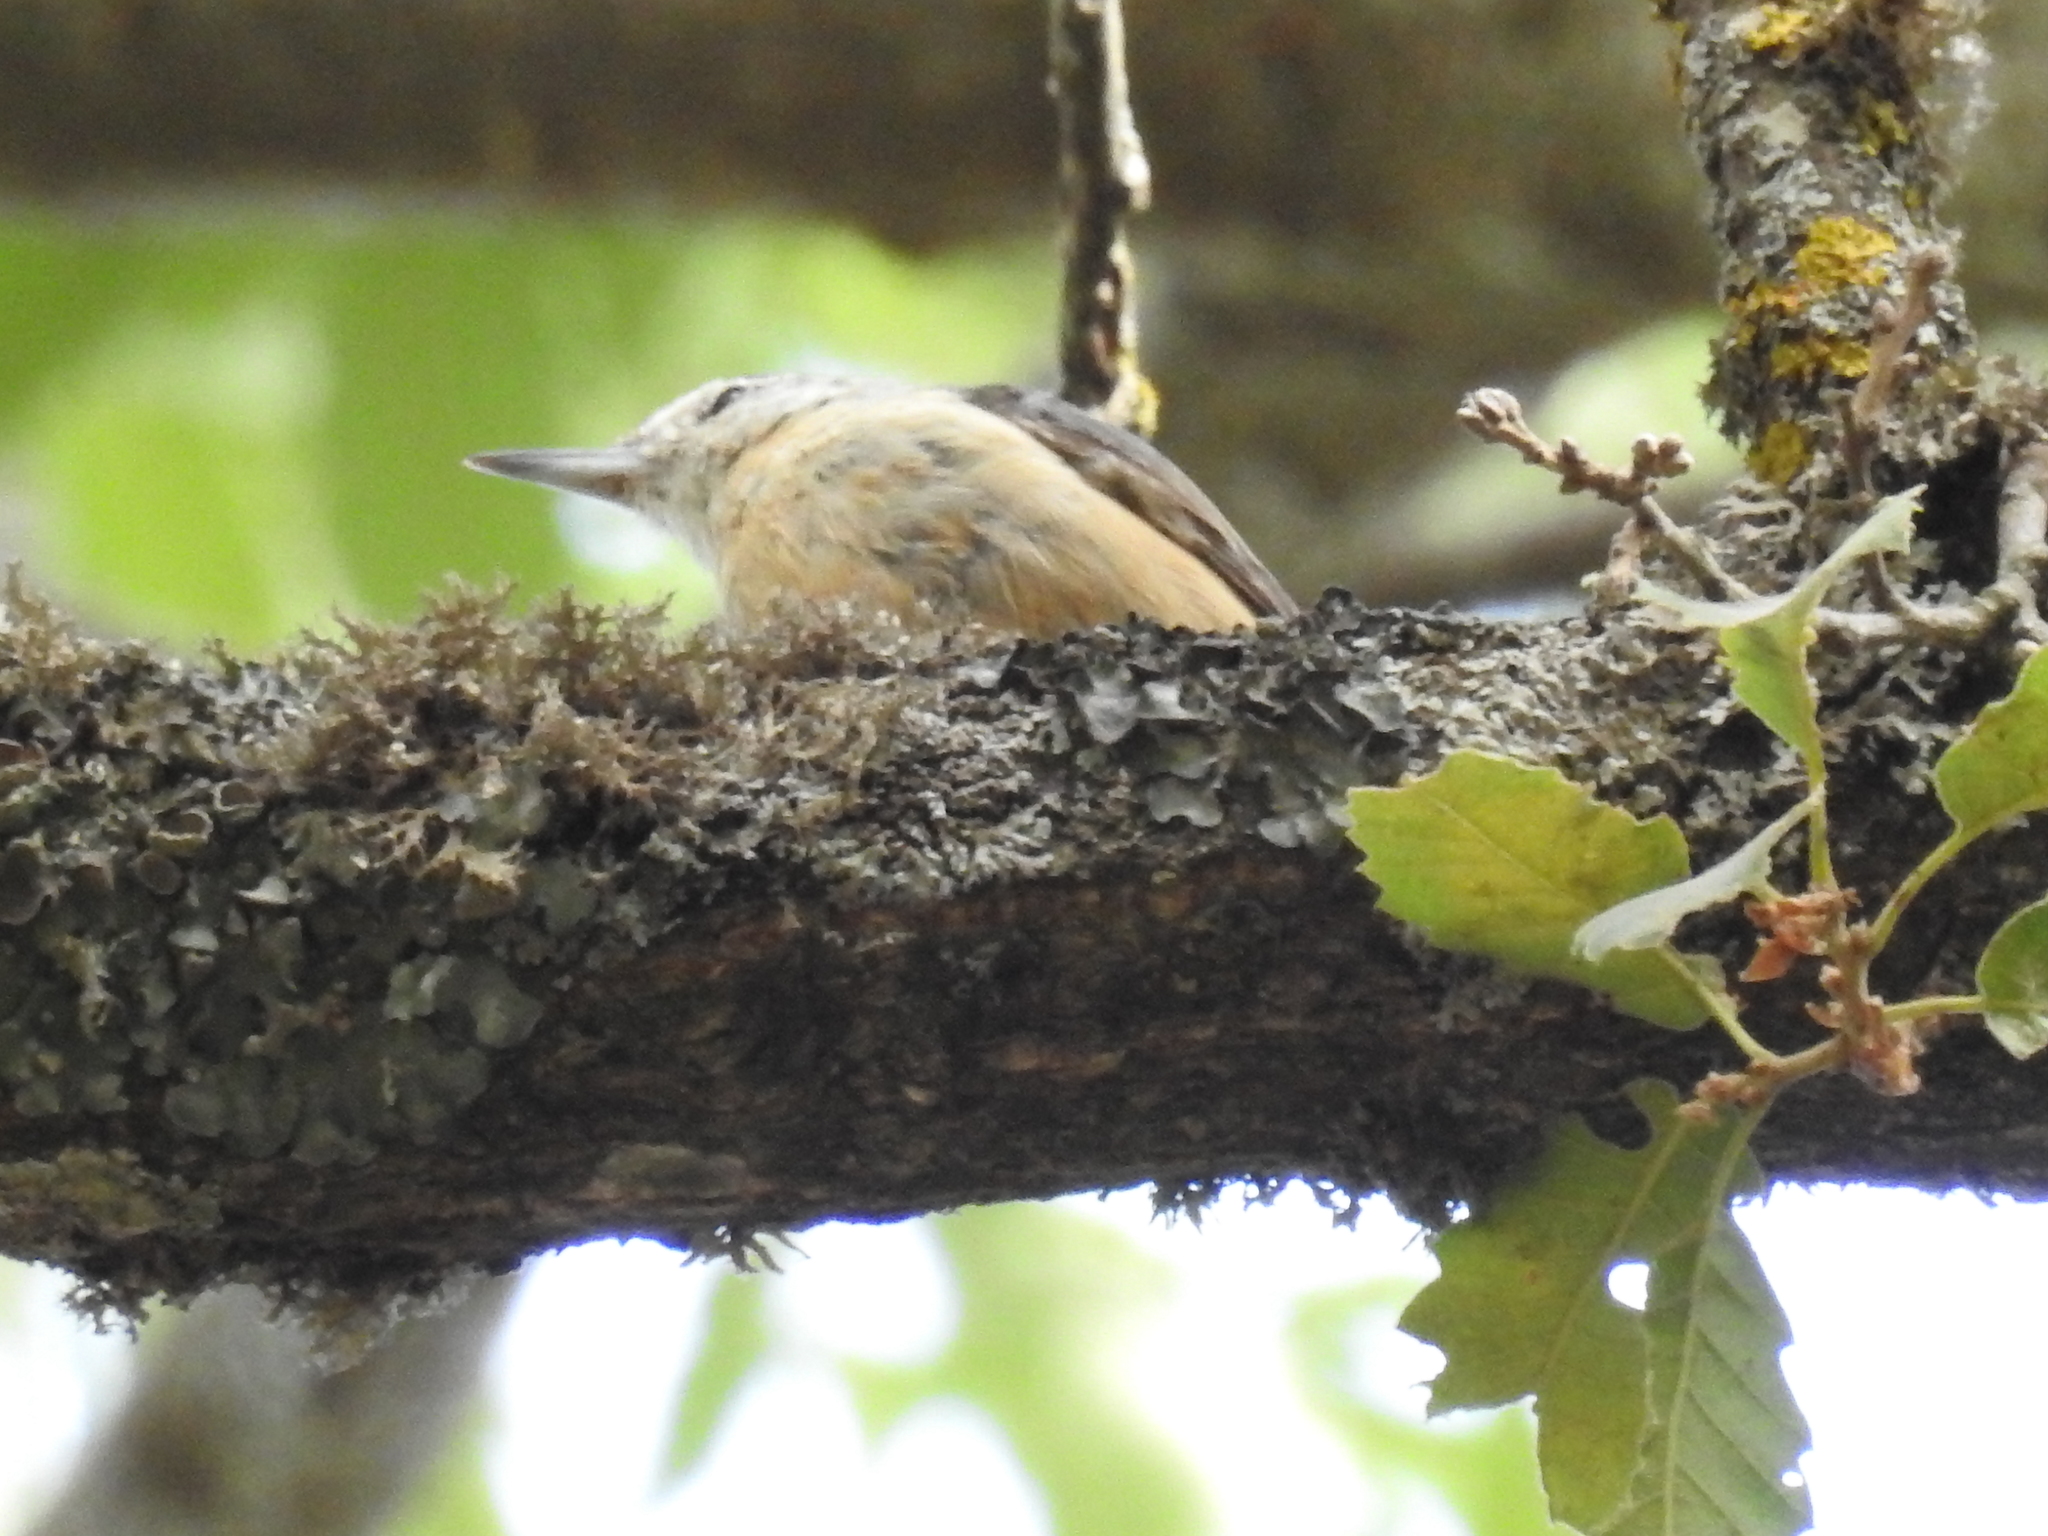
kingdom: Animalia
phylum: Chordata
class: Aves
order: Passeriformes
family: Sittidae
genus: Sitta
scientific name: Sitta ledanti
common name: Algerian nuthatch
